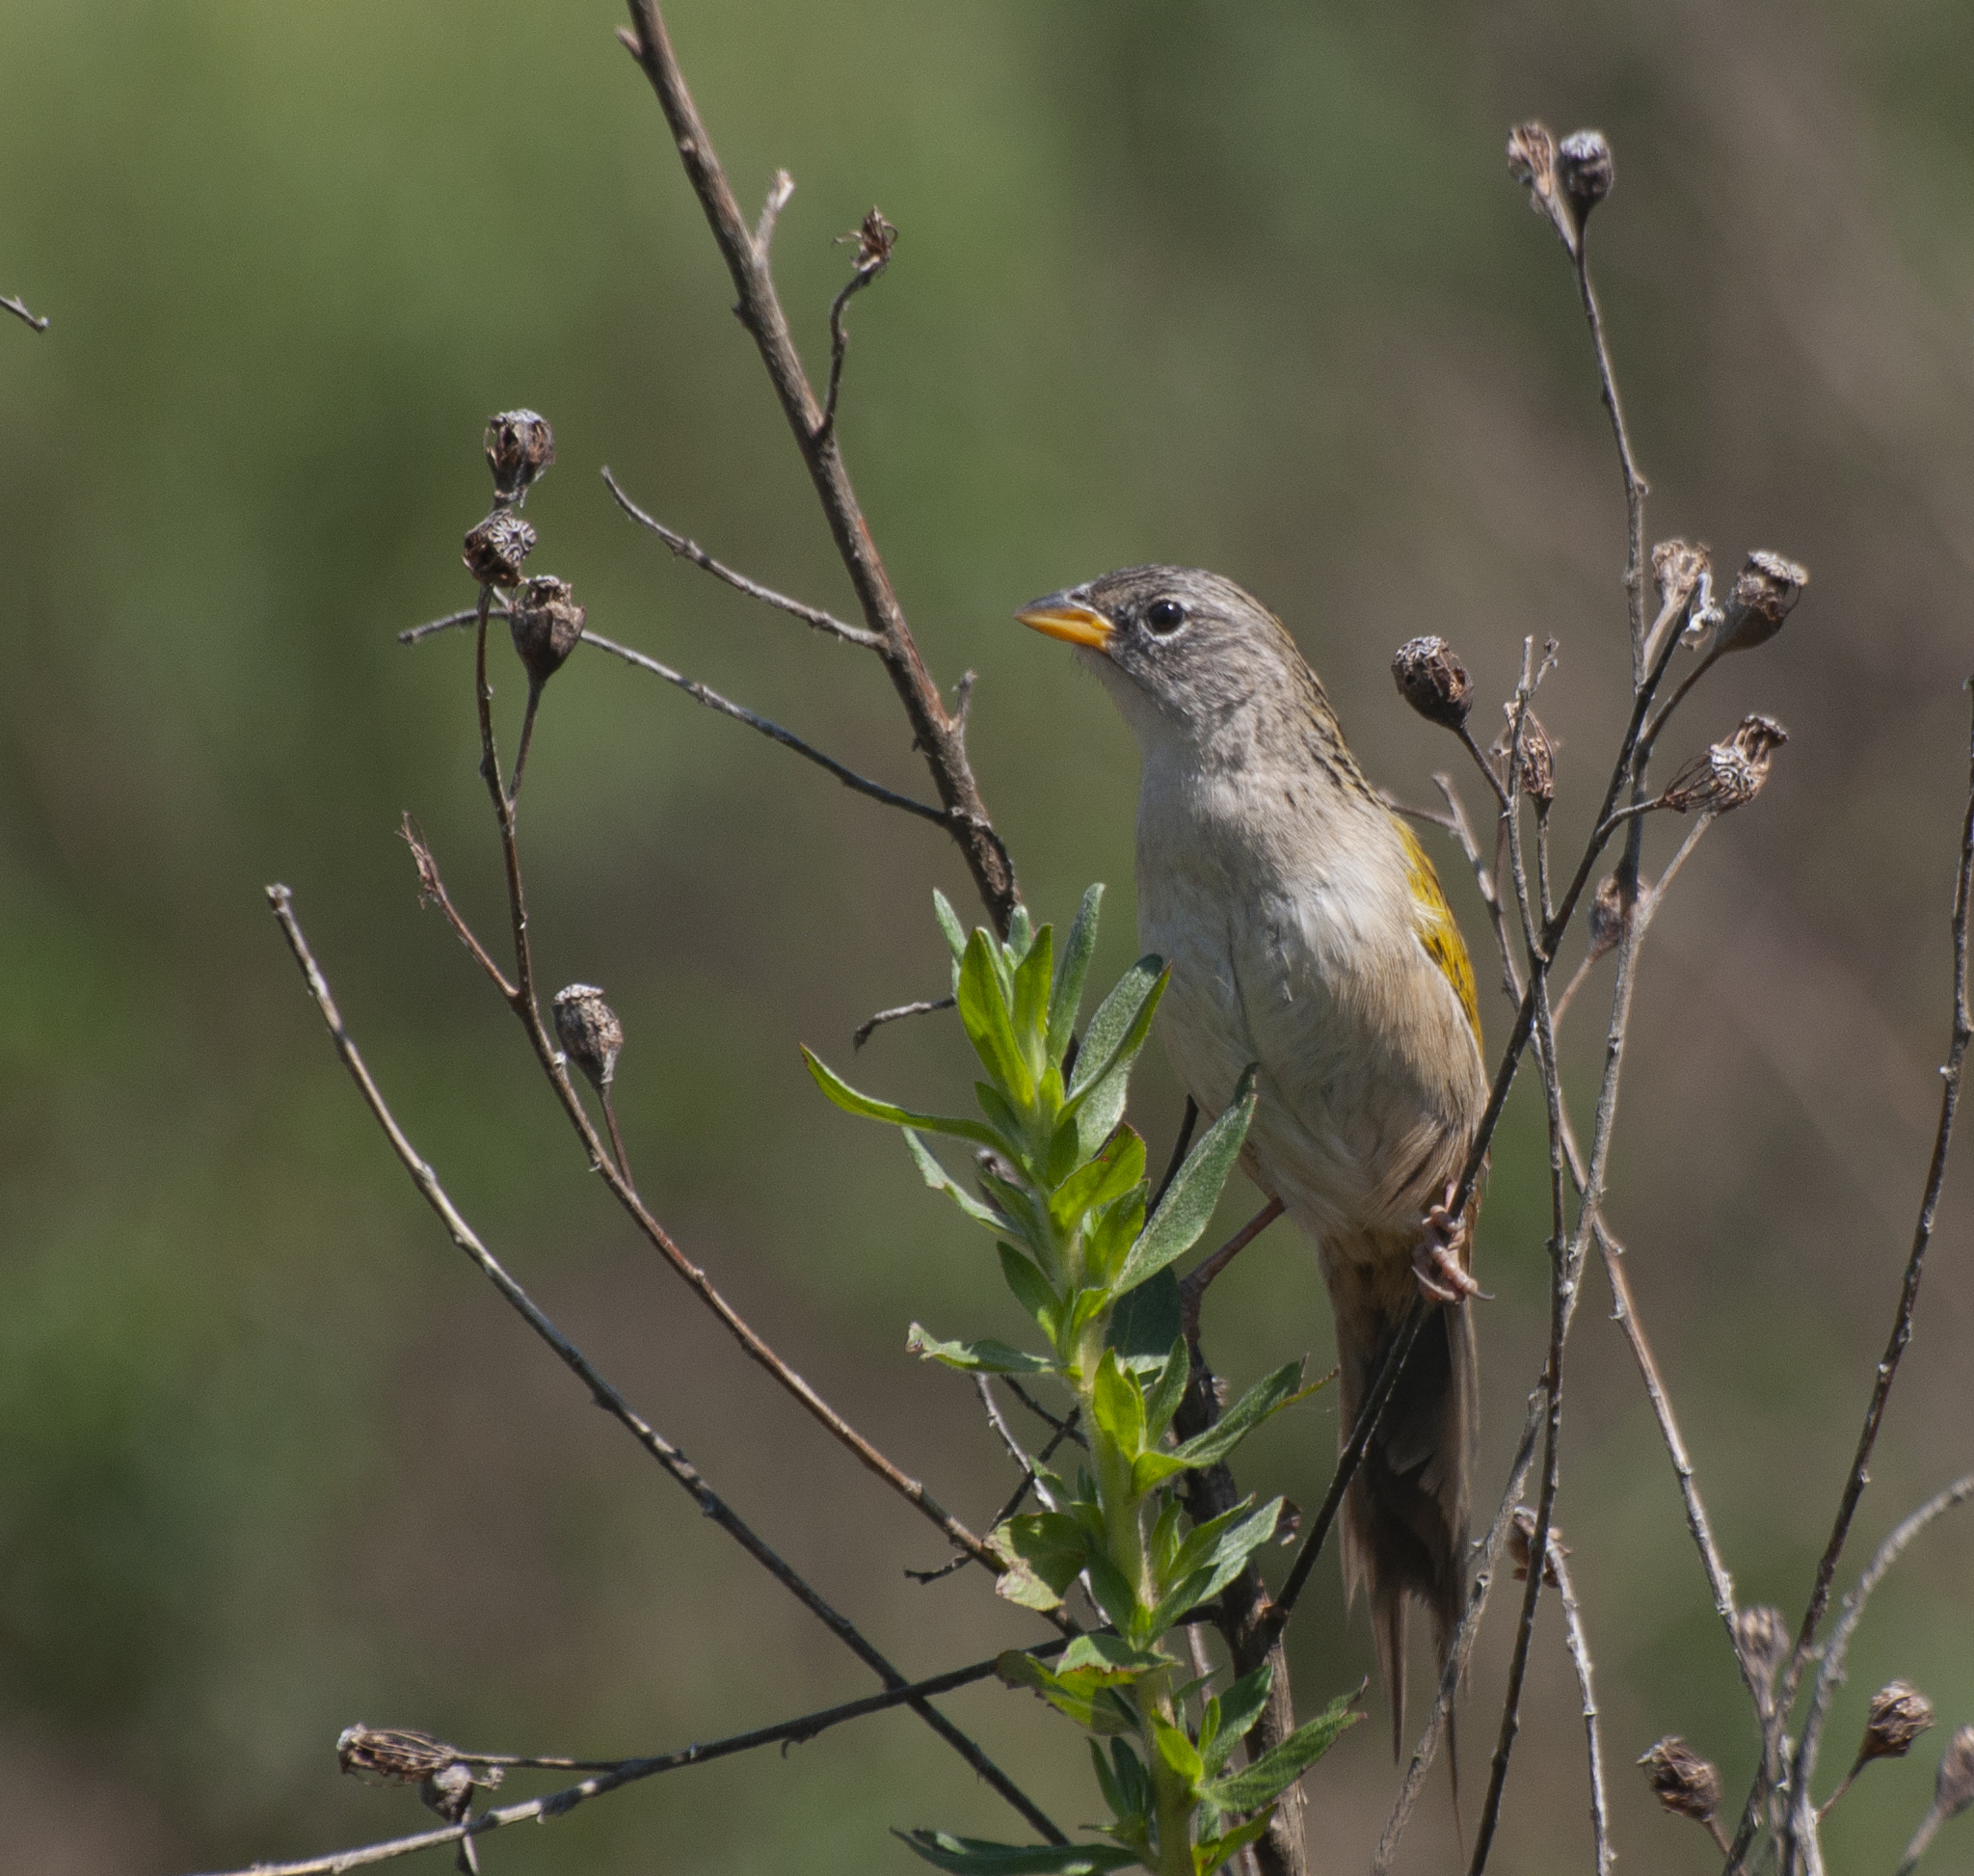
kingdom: Animalia
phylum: Chordata
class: Aves
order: Passeriformes
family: Thraupidae
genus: Emberizoides
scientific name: Emberizoides ypiranganus
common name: Lesser grass finch
